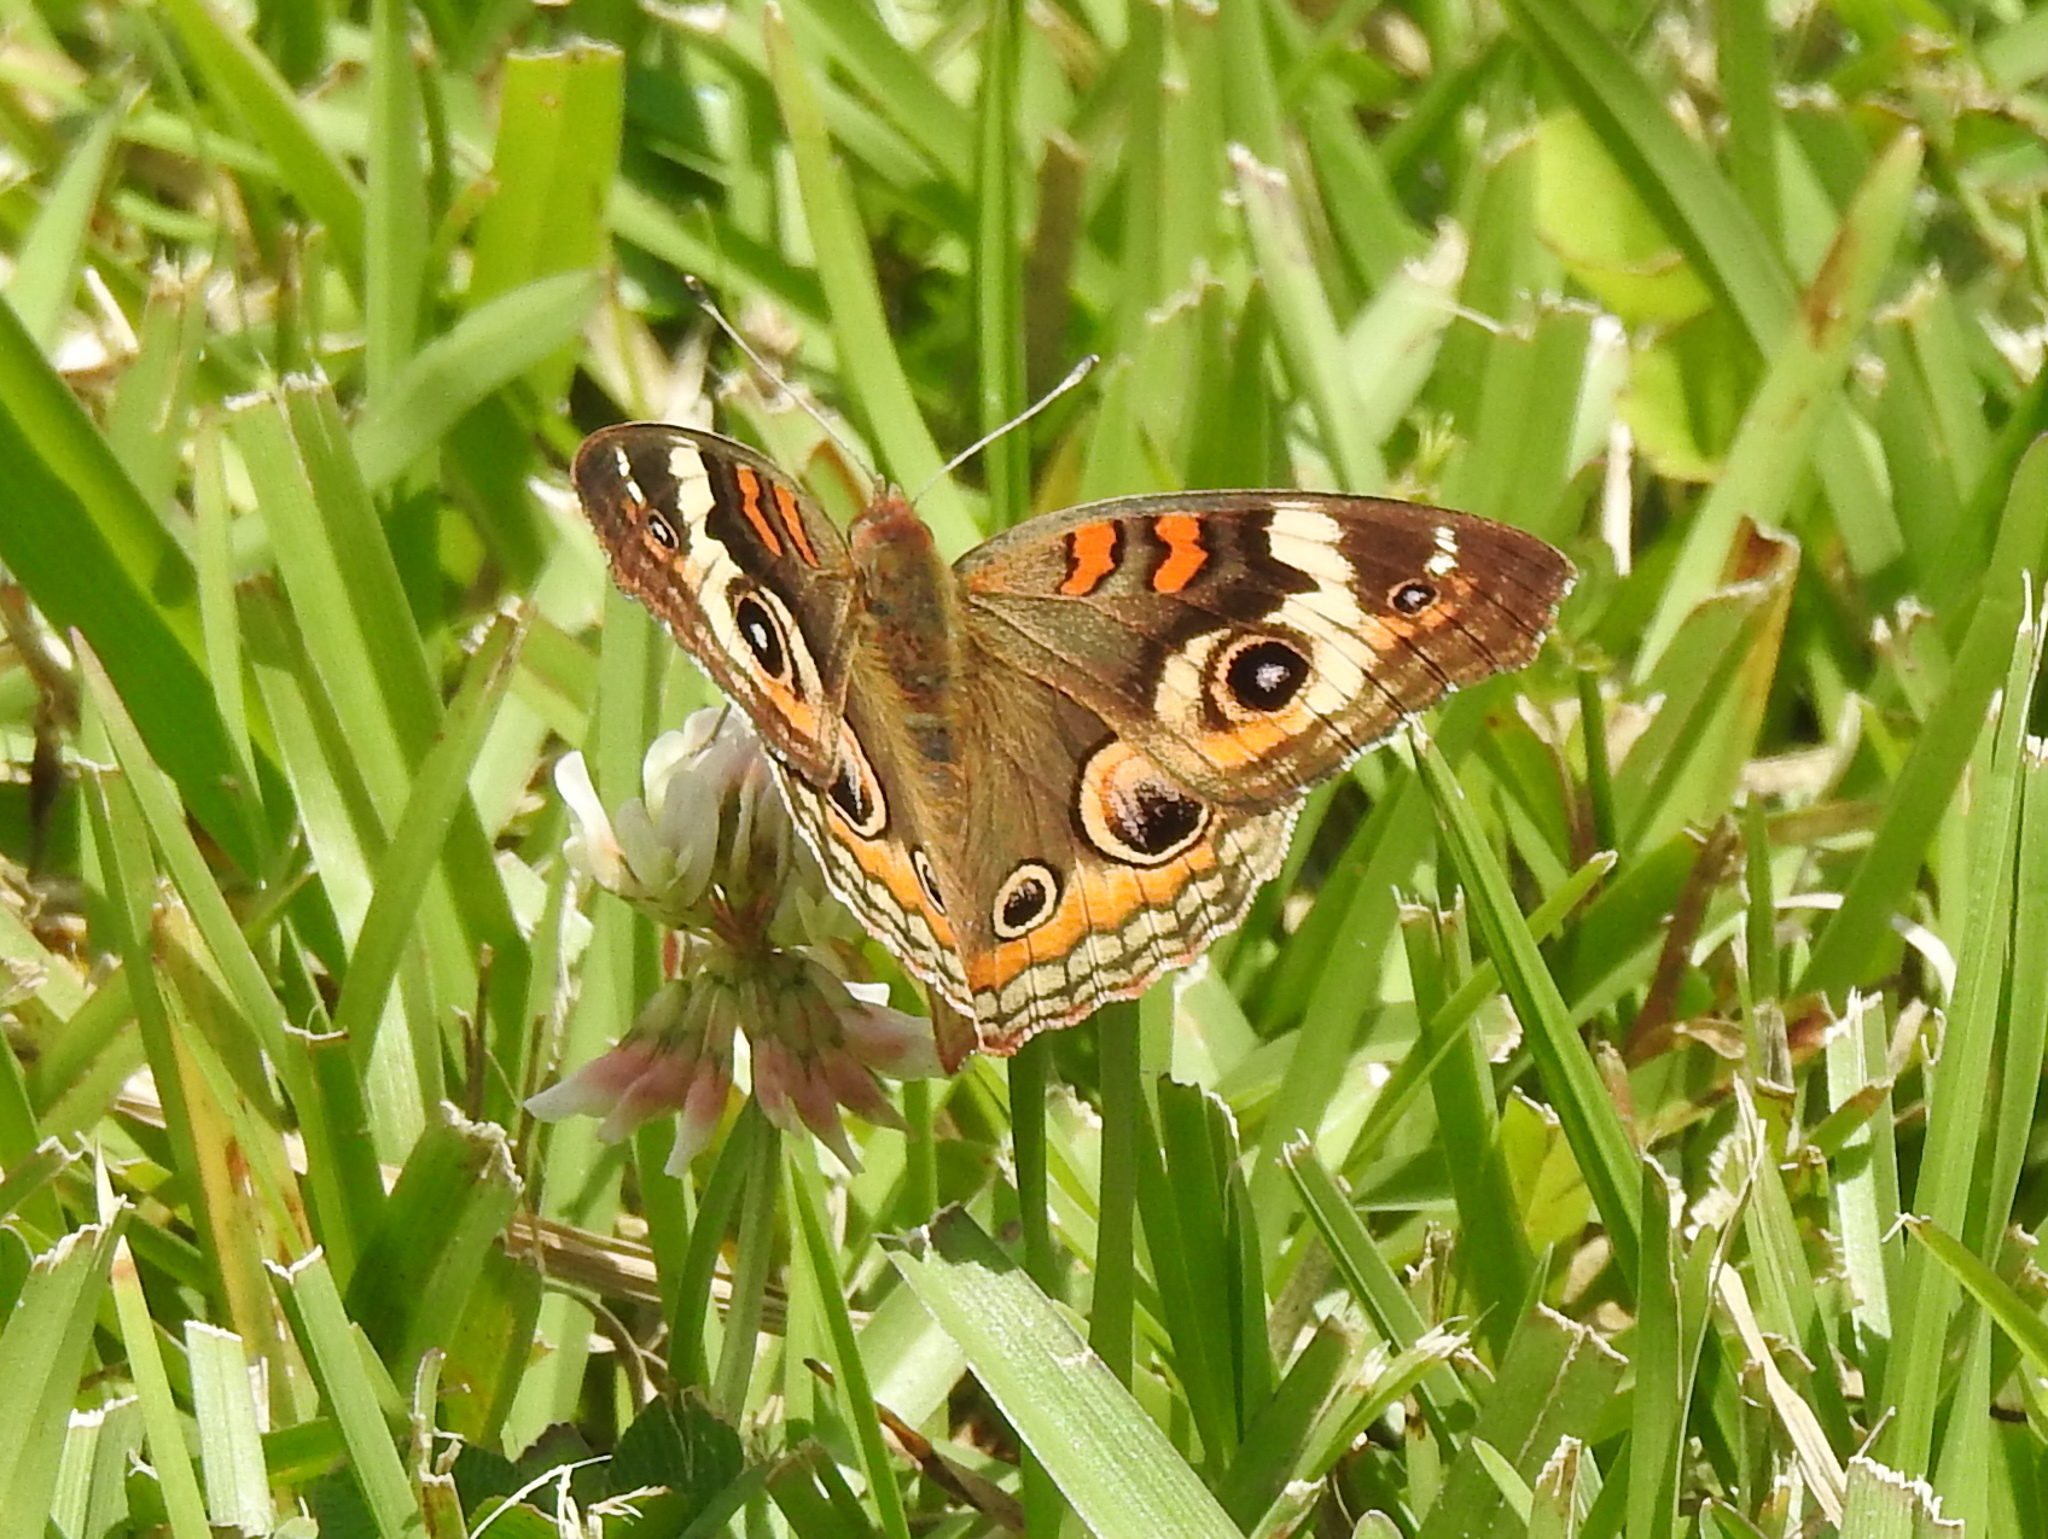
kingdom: Animalia
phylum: Arthropoda
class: Insecta
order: Lepidoptera
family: Nymphalidae
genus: Junonia
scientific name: Junonia coenia
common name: Common buckeye
